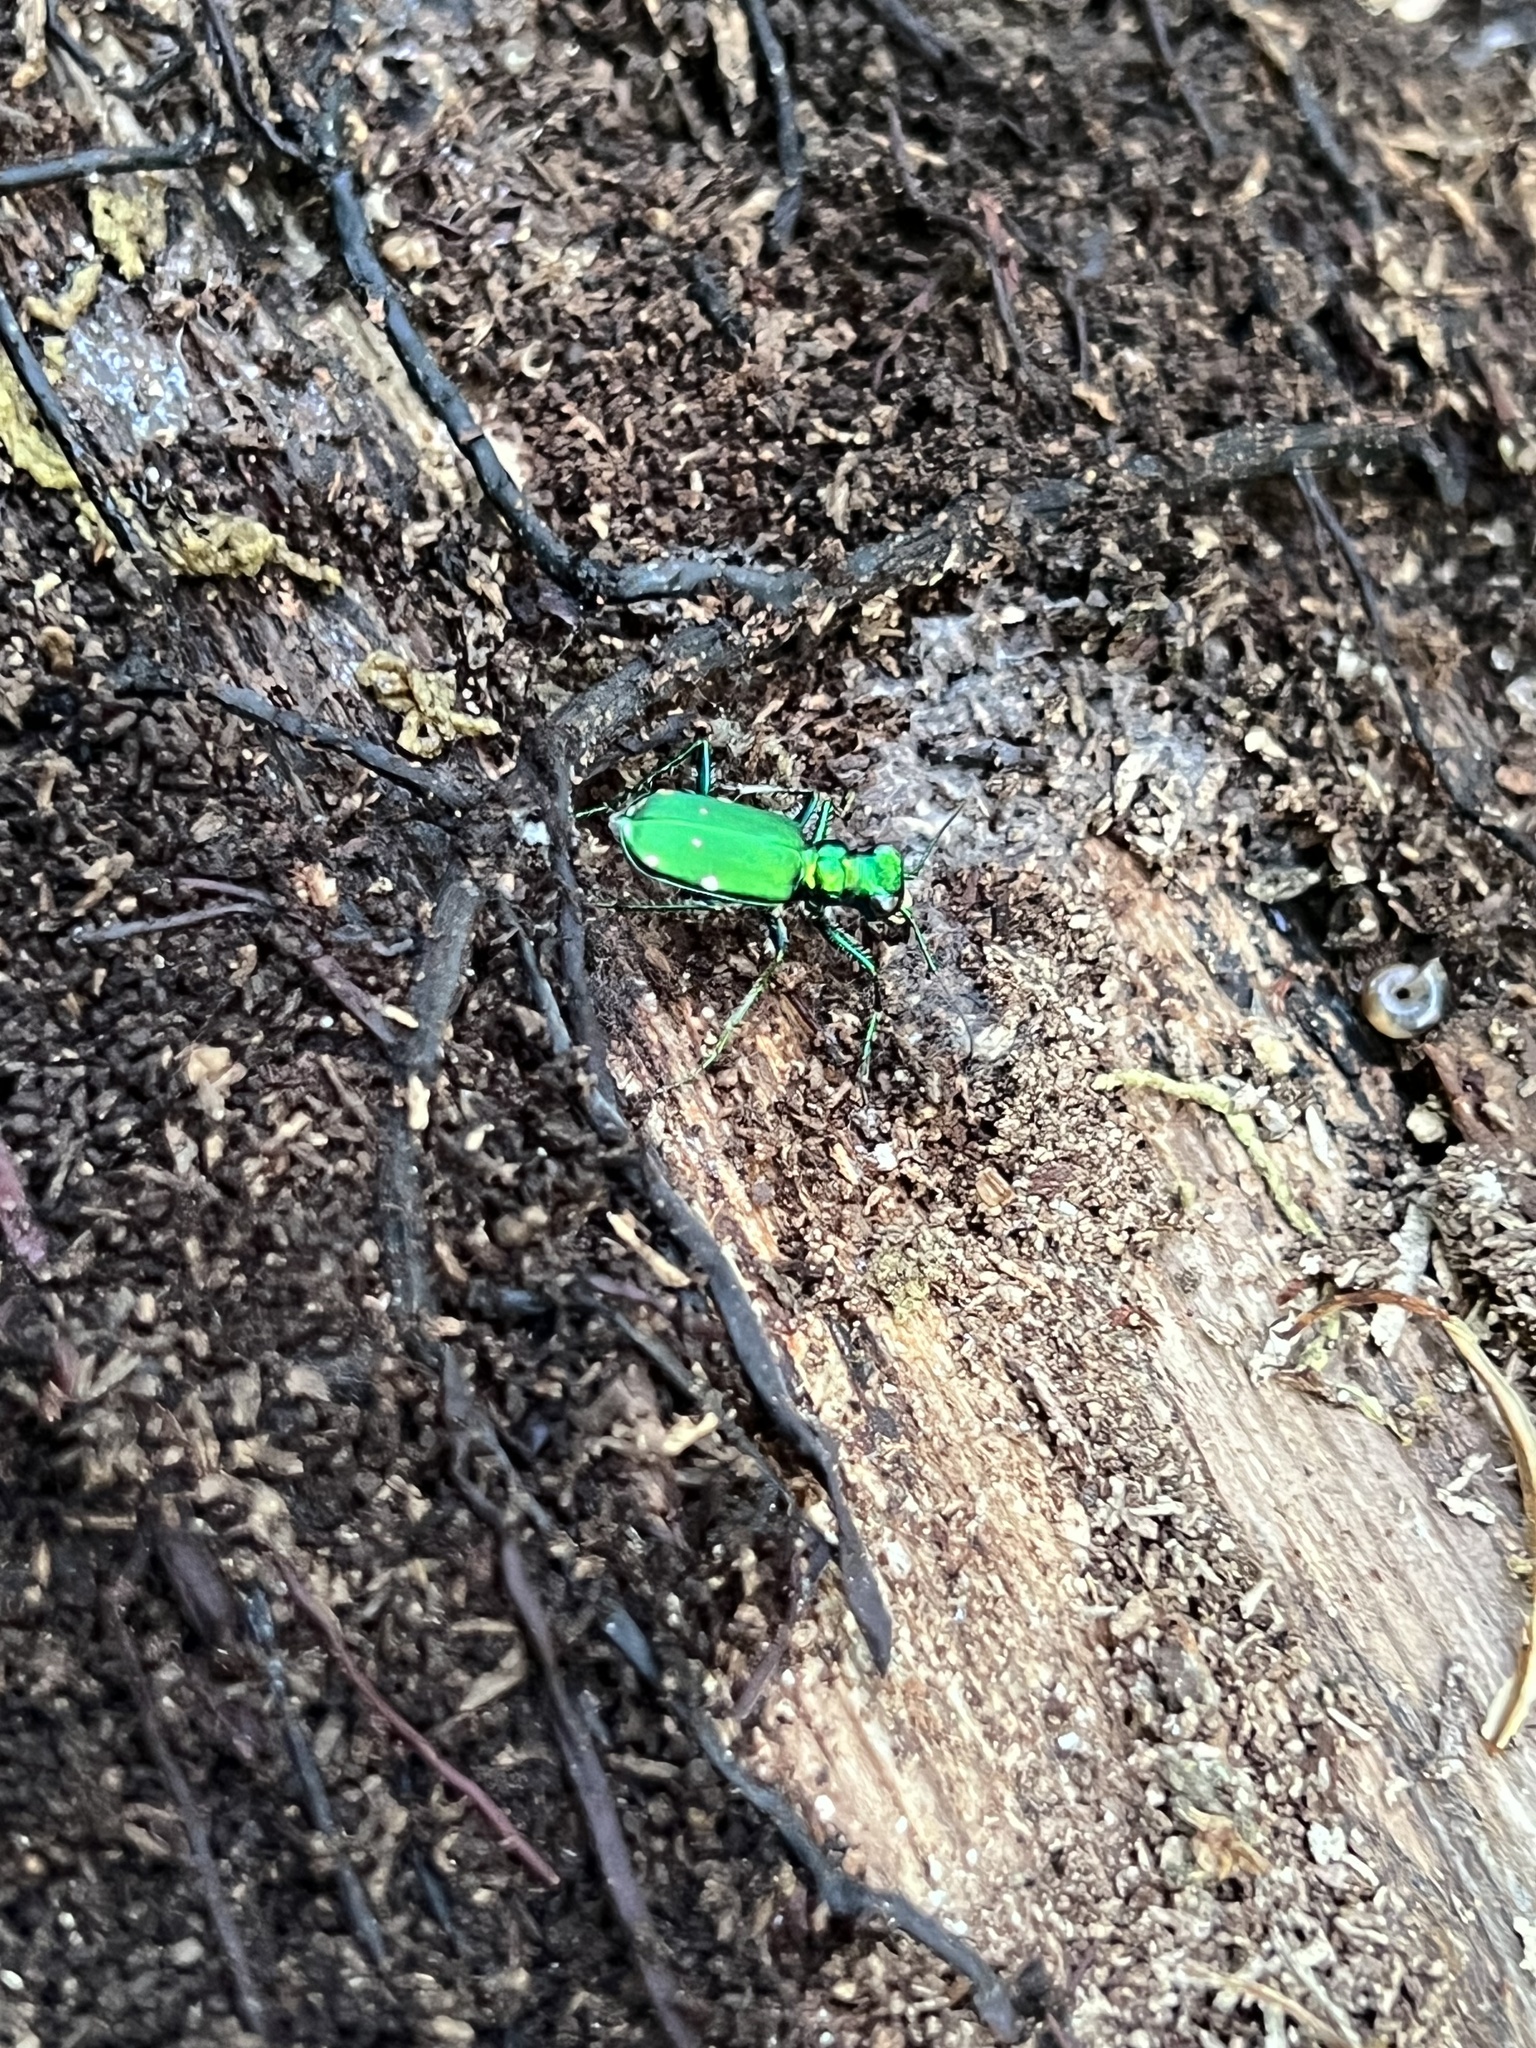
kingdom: Animalia
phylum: Arthropoda
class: Insecta
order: Coleoptera
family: Carabidae
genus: Cicindela
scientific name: Cicindela sexguttata
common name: Six-spotted tiger beetle
